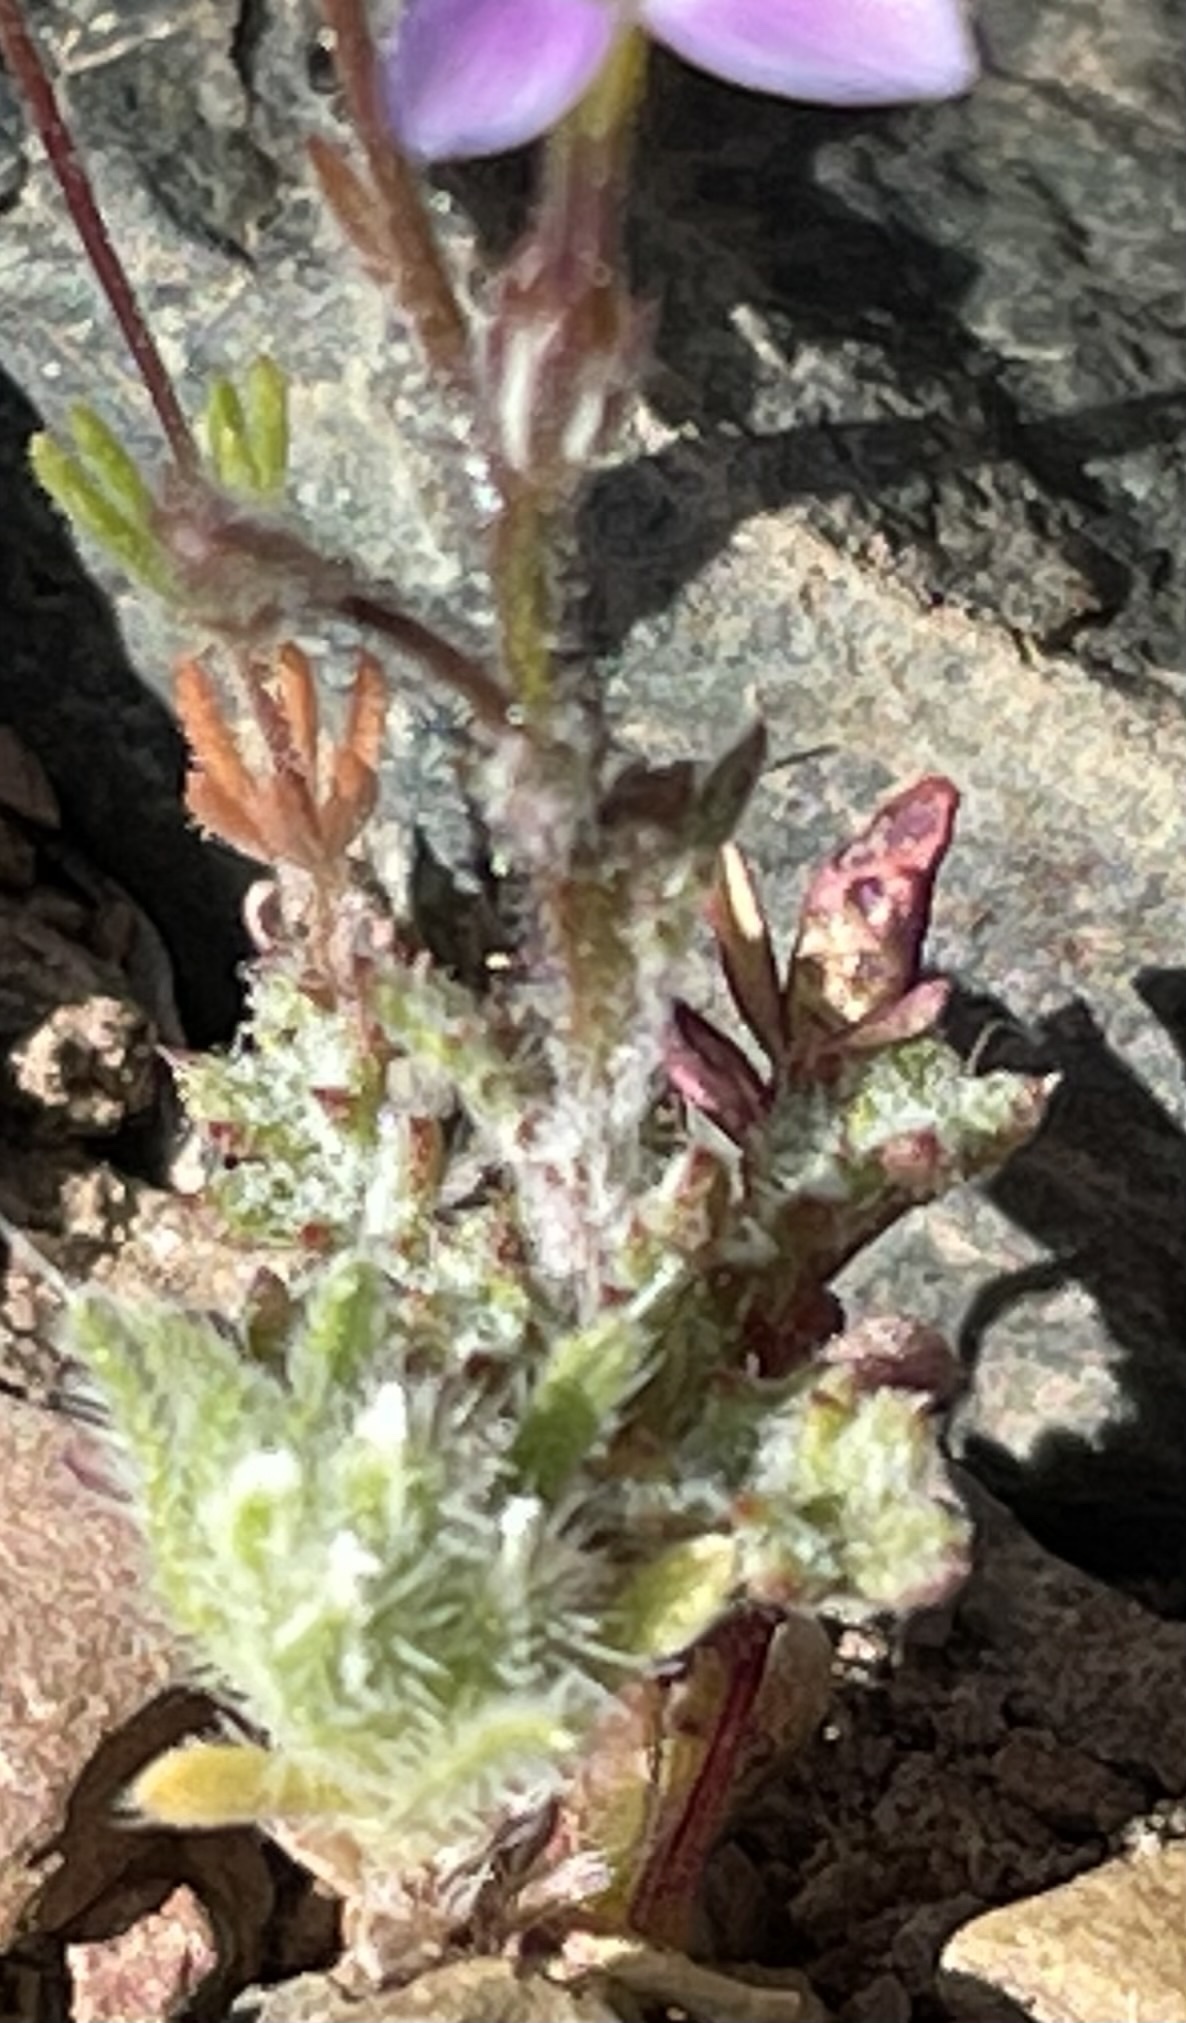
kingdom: Plantae
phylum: Tracheophyta
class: Magnoliopsida
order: Ericales
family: Polemoniaceae
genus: Gilia
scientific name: Gilia ophthalmoides
